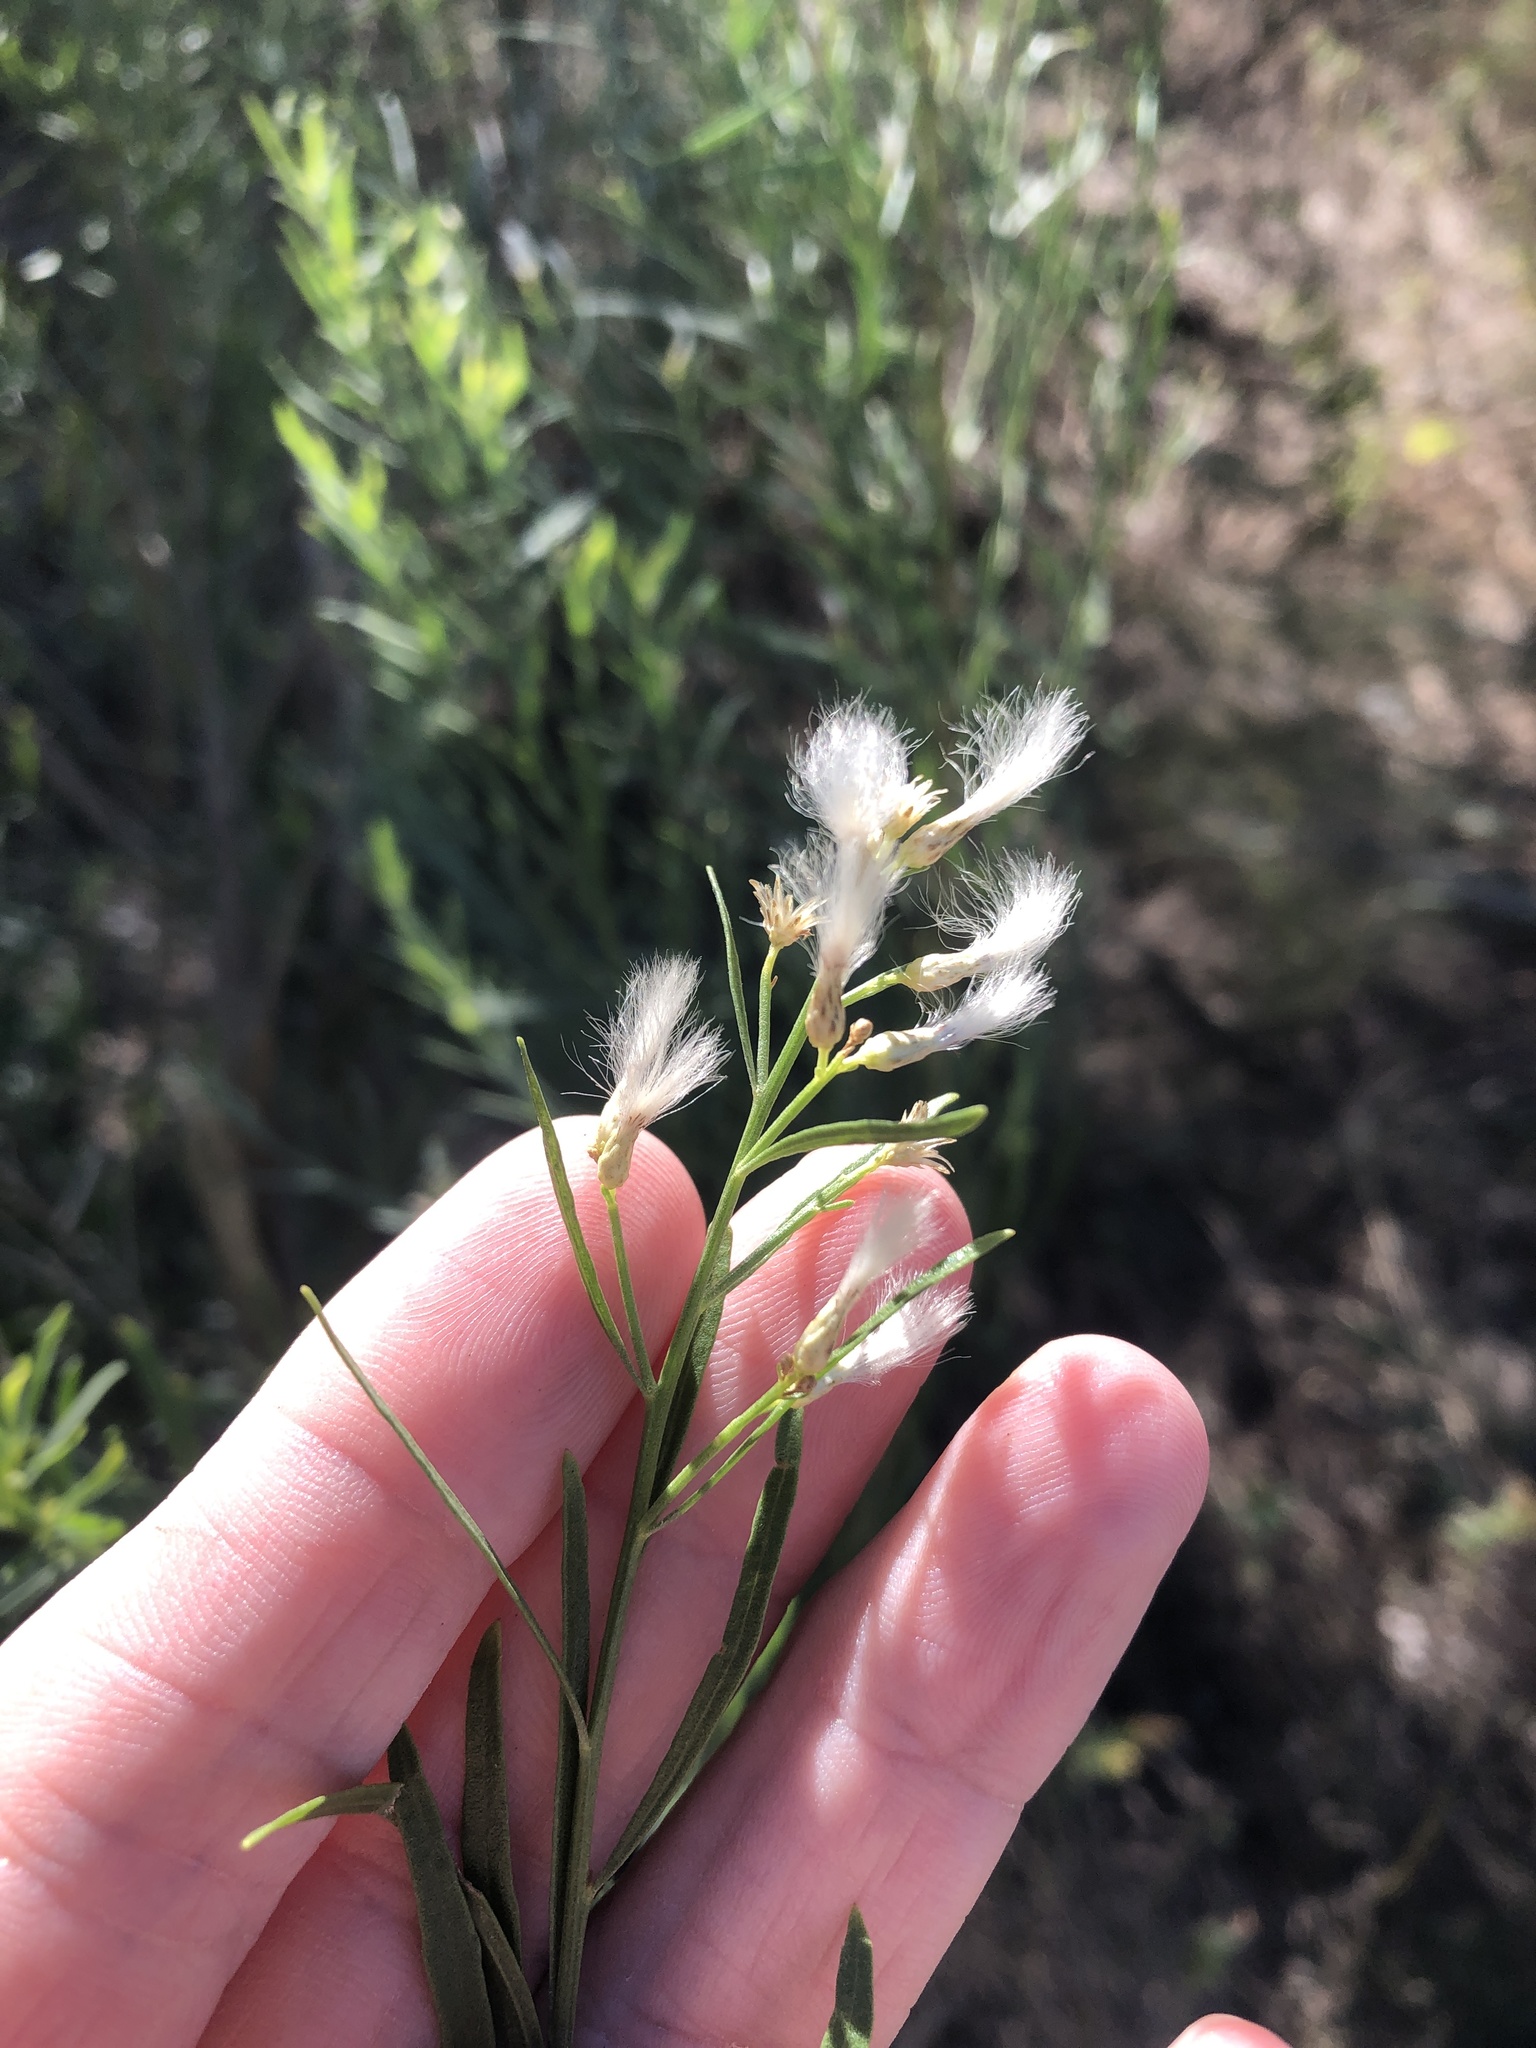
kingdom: Plantae
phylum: Tracheophyta
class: Magnoliopsida
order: Asterales
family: Asteraceae
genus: Baccharis
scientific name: Baccharis neglecta
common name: Roosevelt-weed
